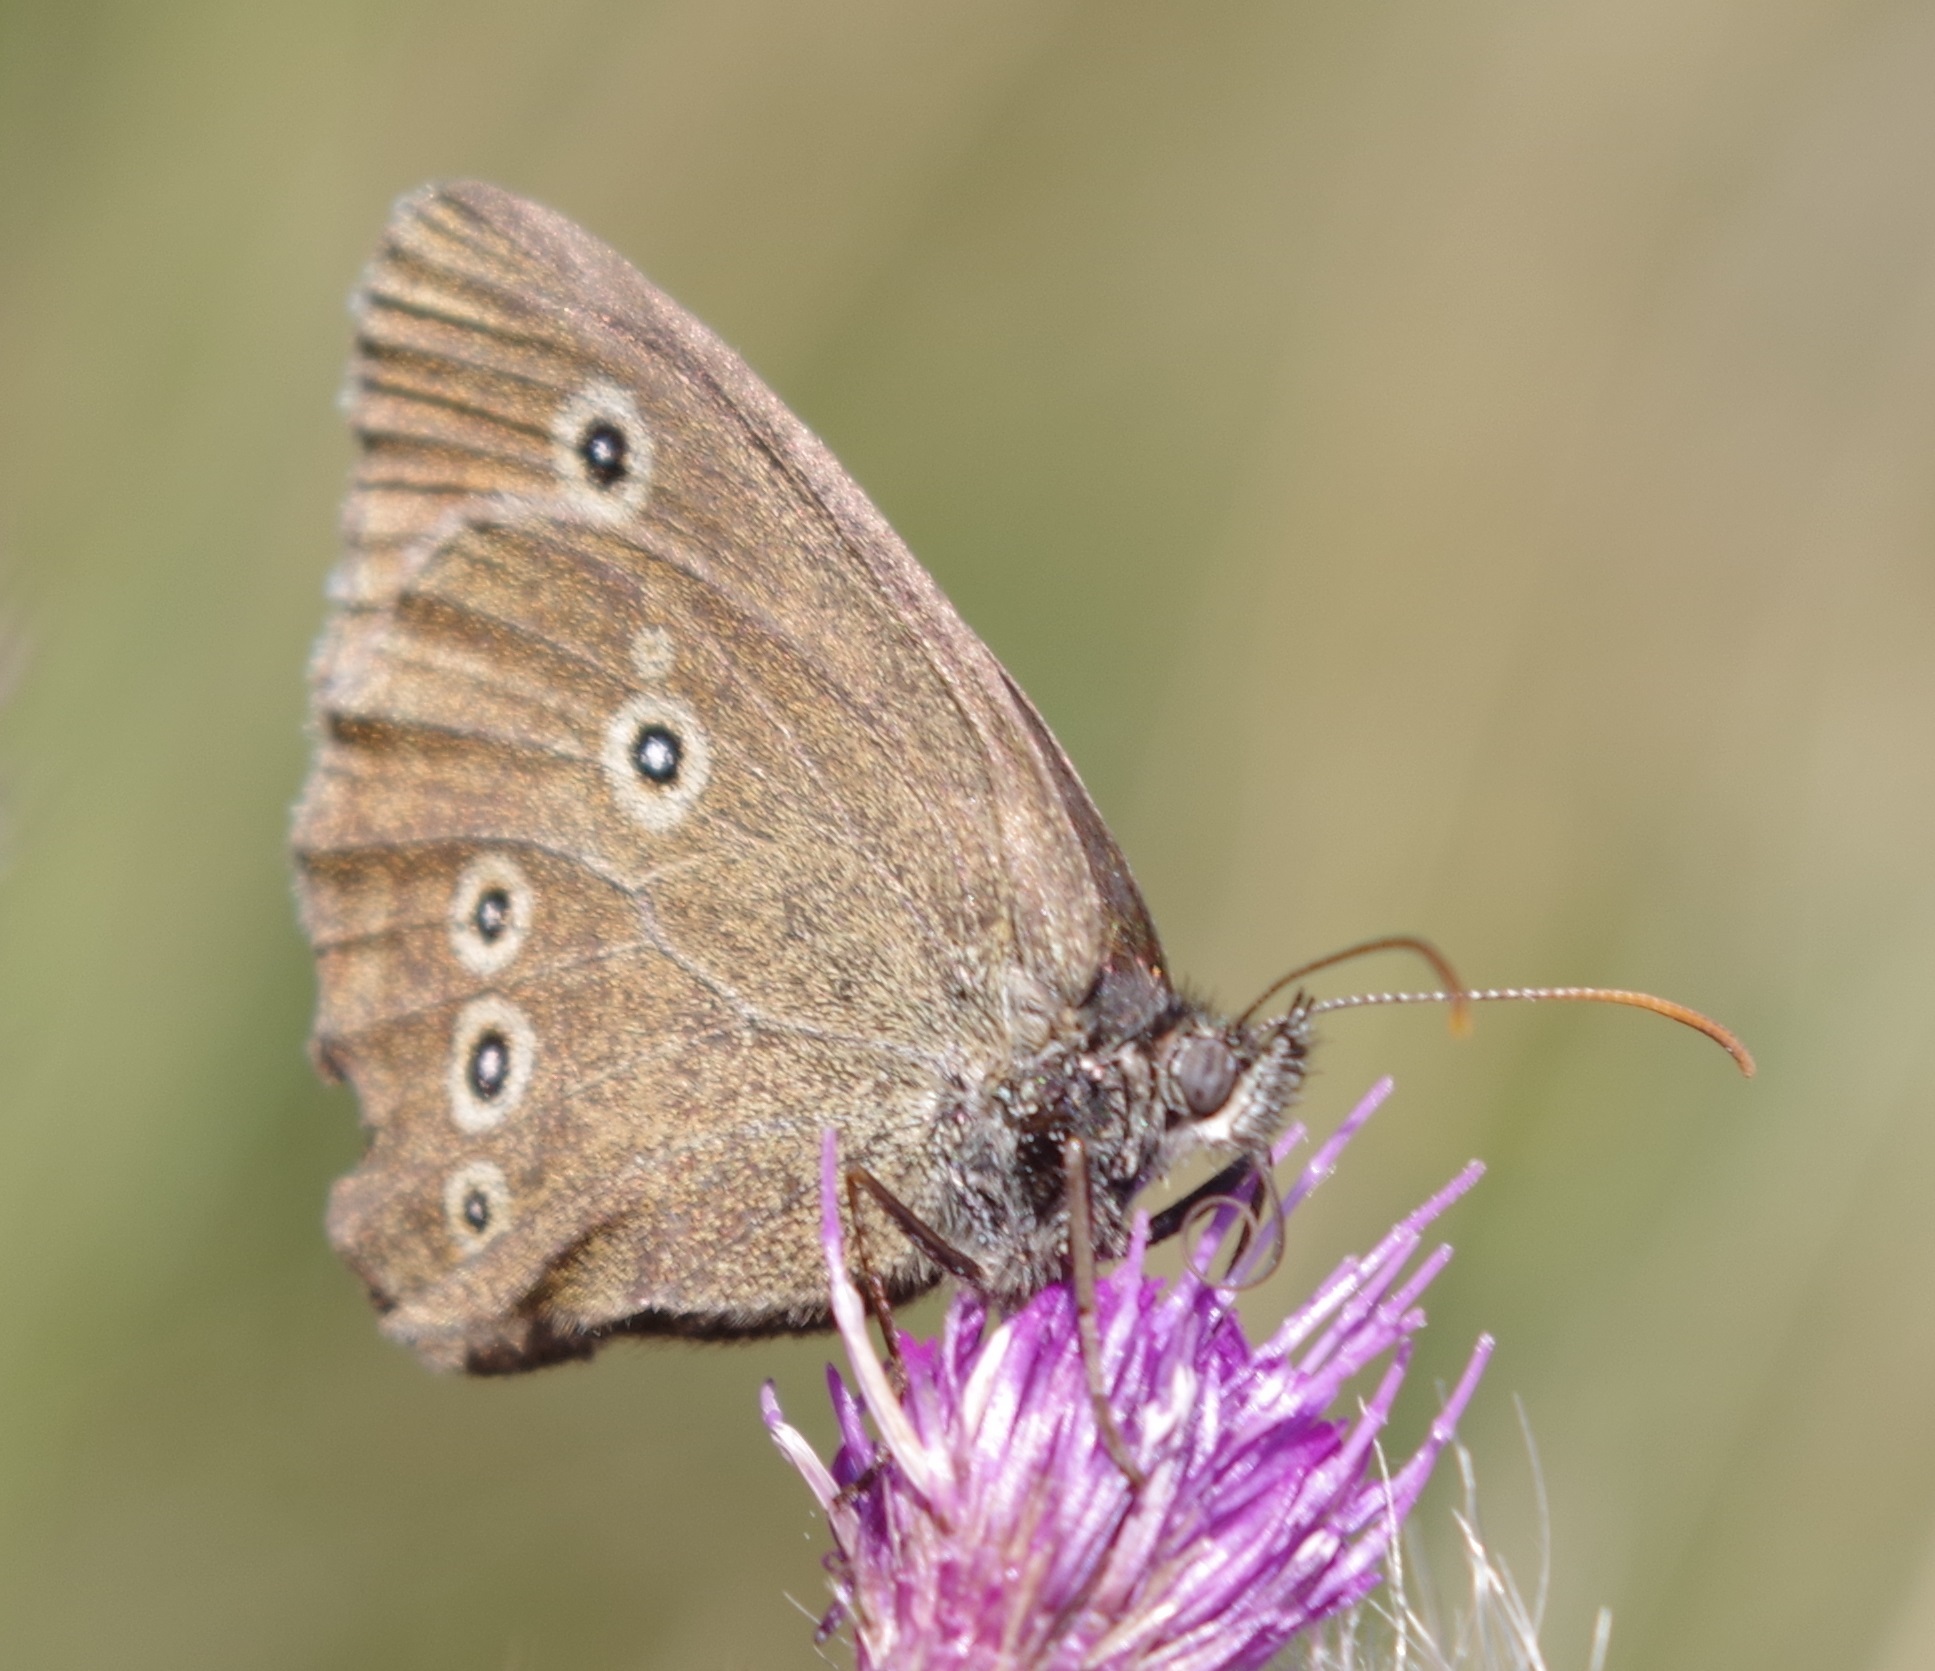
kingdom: Animalia
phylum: Arthropoda
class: Insecta
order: Lepidoptera
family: Nymphalidae
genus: Aphantopus
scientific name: Aphantopus hyperantus
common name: Ringlet
